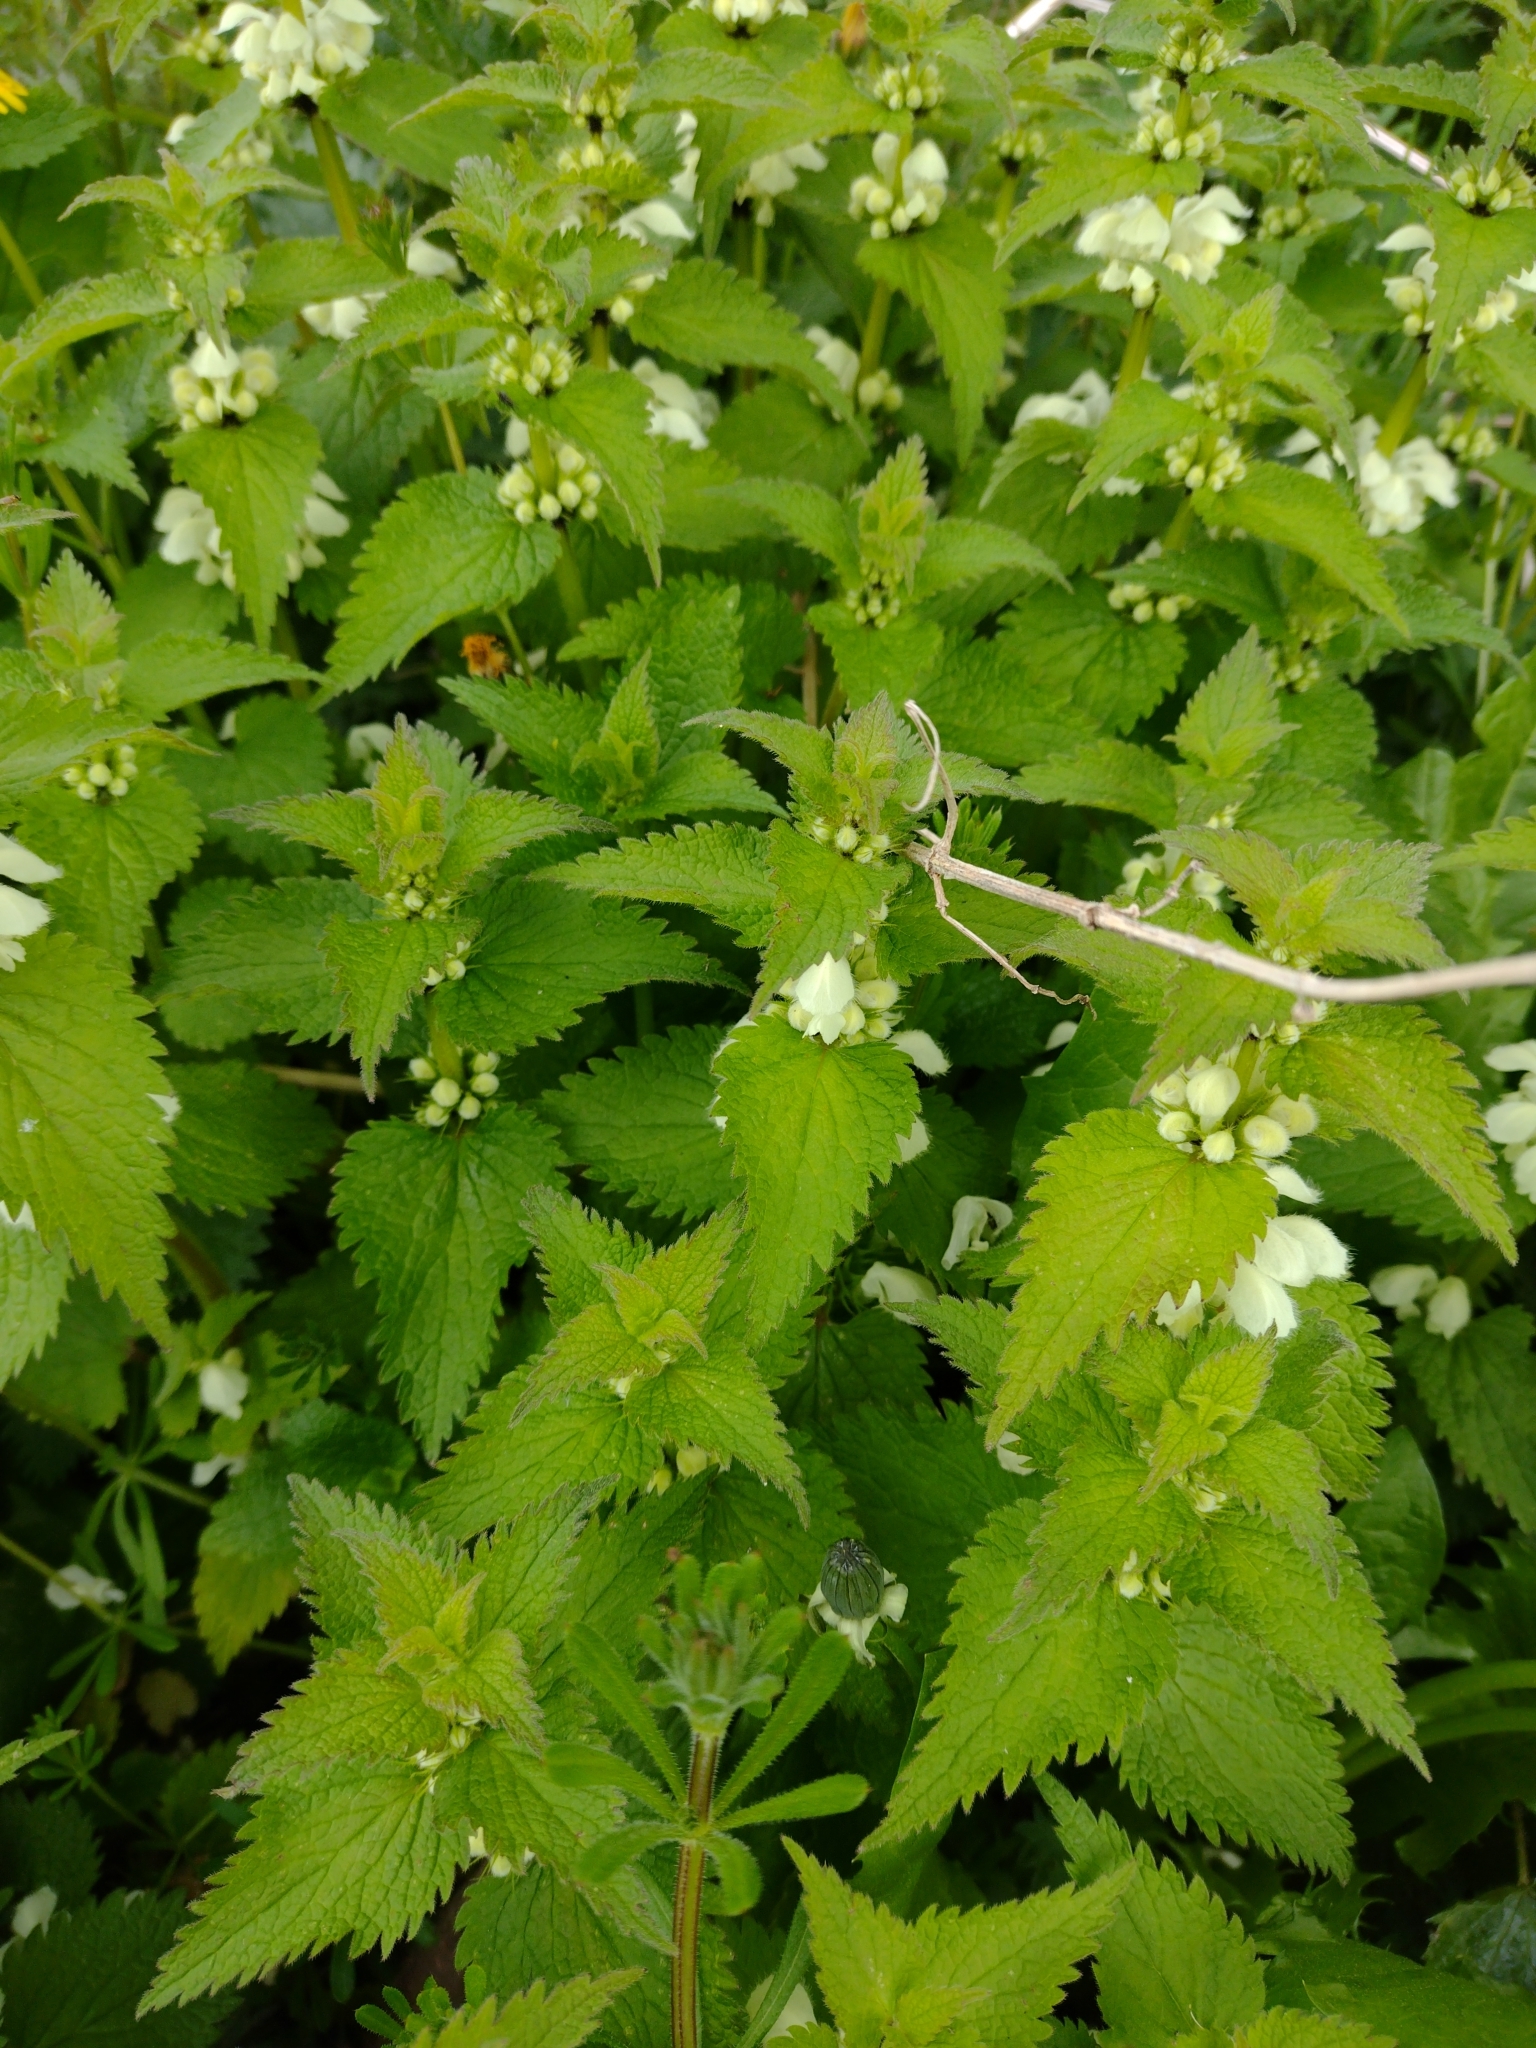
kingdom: Plantae
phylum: Tracheophyta
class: Magnoliopsida
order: Lamiales
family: Lamiaceae
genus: Lamium
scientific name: Lamium album
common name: White dead-nettle
